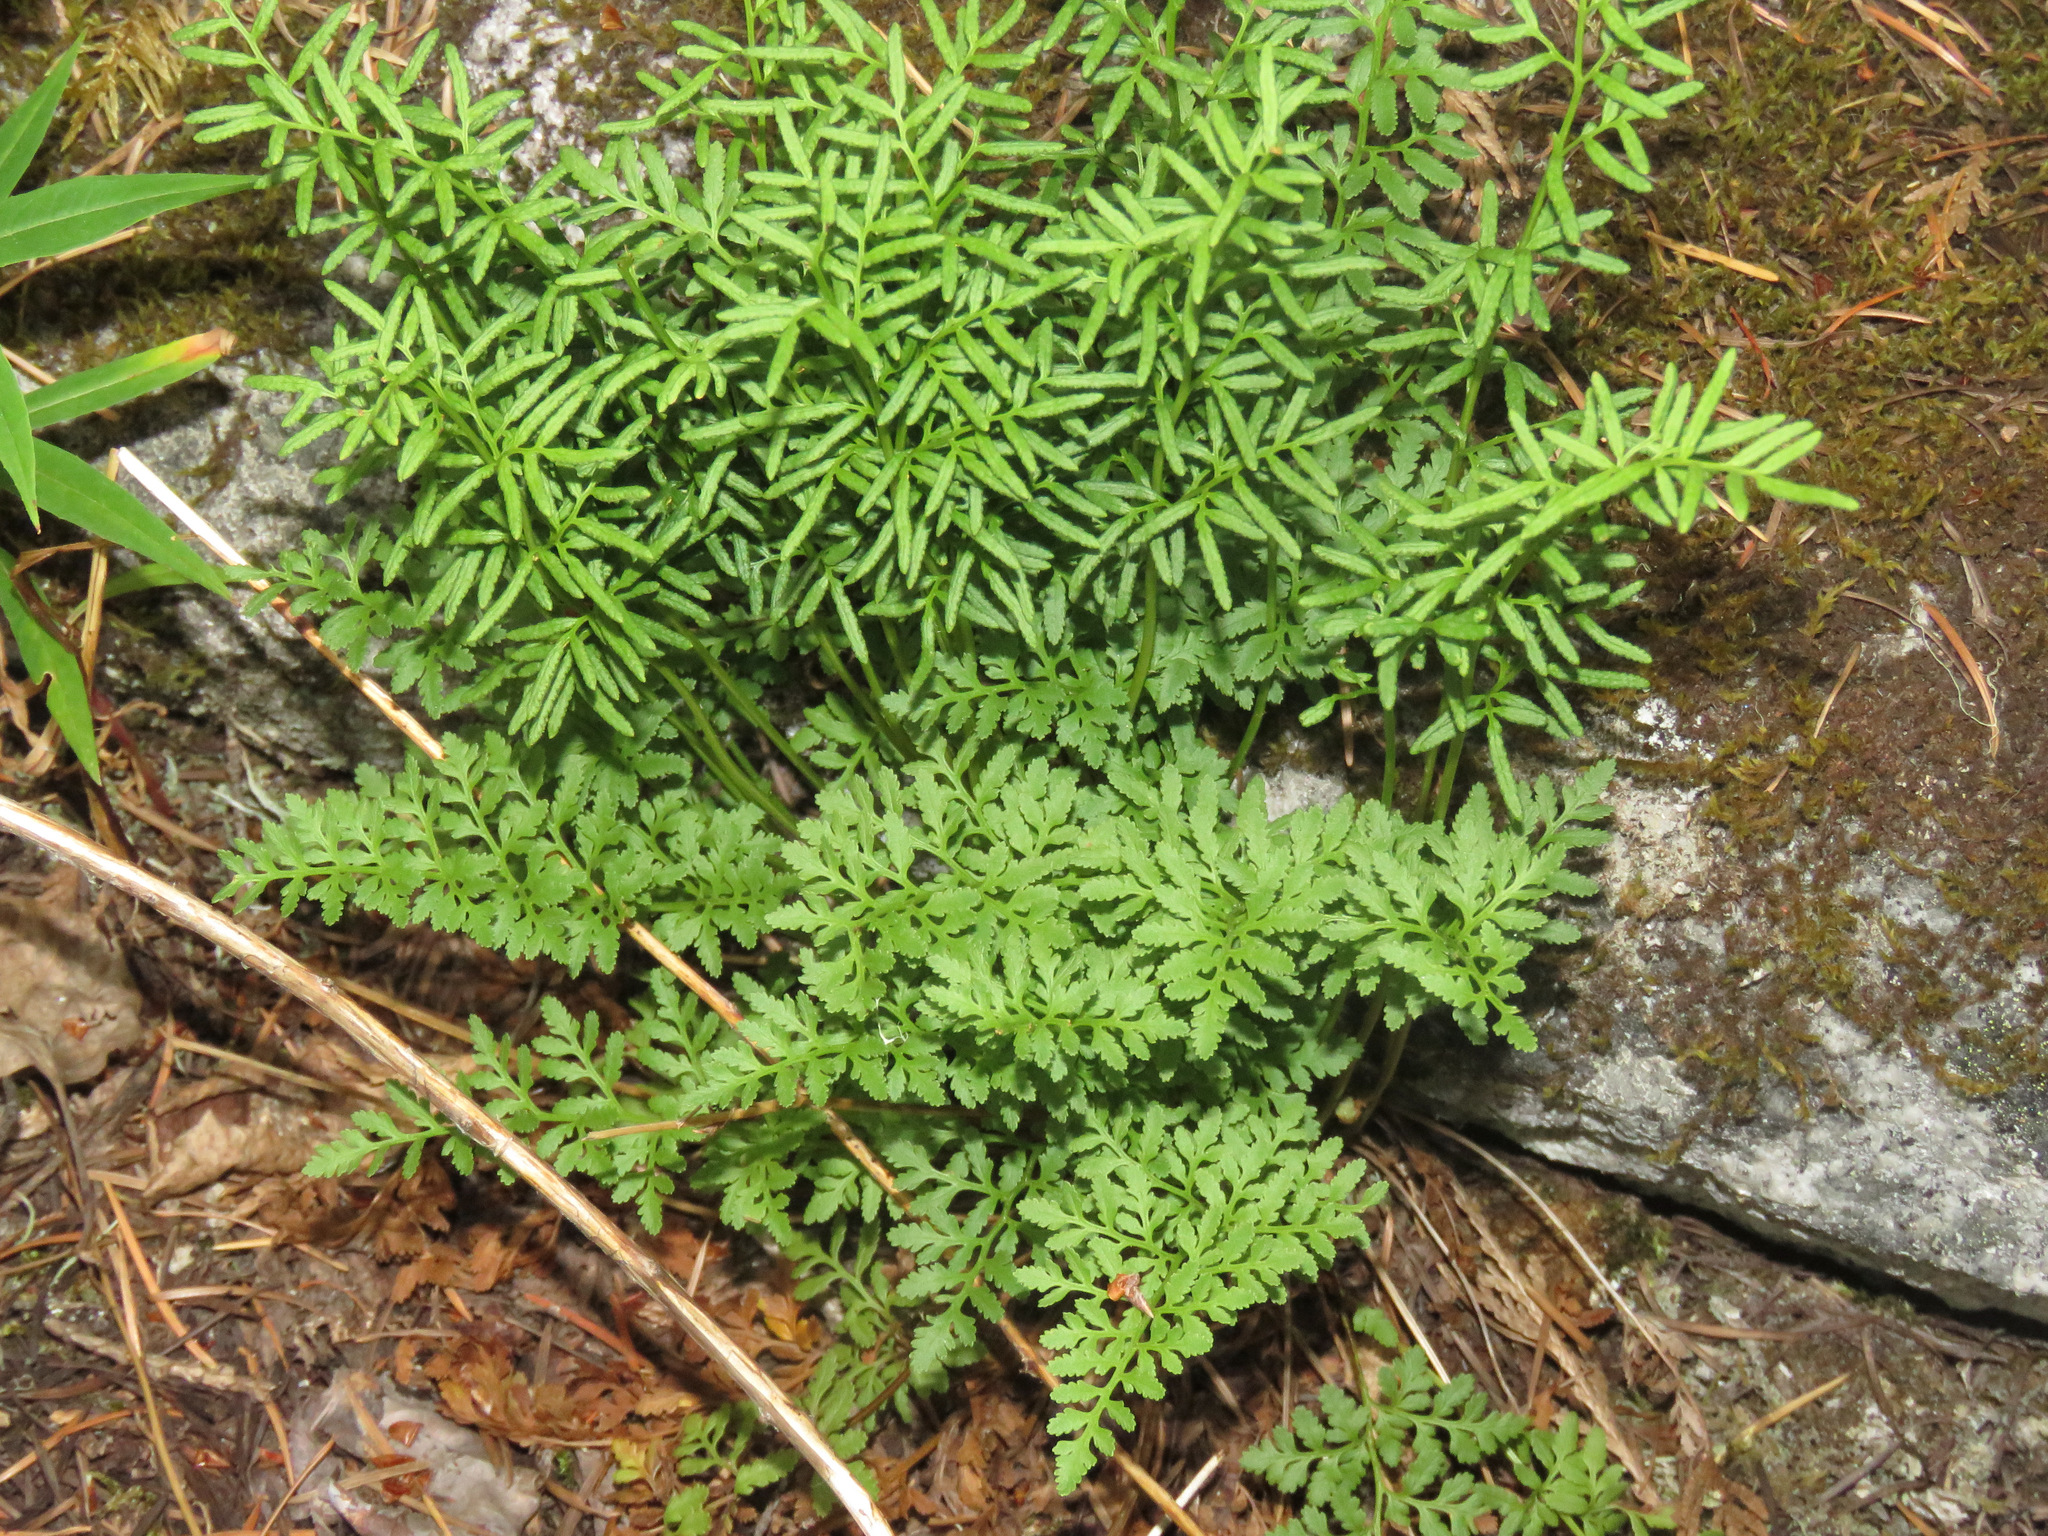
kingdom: Plantae
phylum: Tracheophyta
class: Polypodiopsida
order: Polypodiales
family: Pteridaceae
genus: Cryptogramma
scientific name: Cryptogramma acrostichoides
